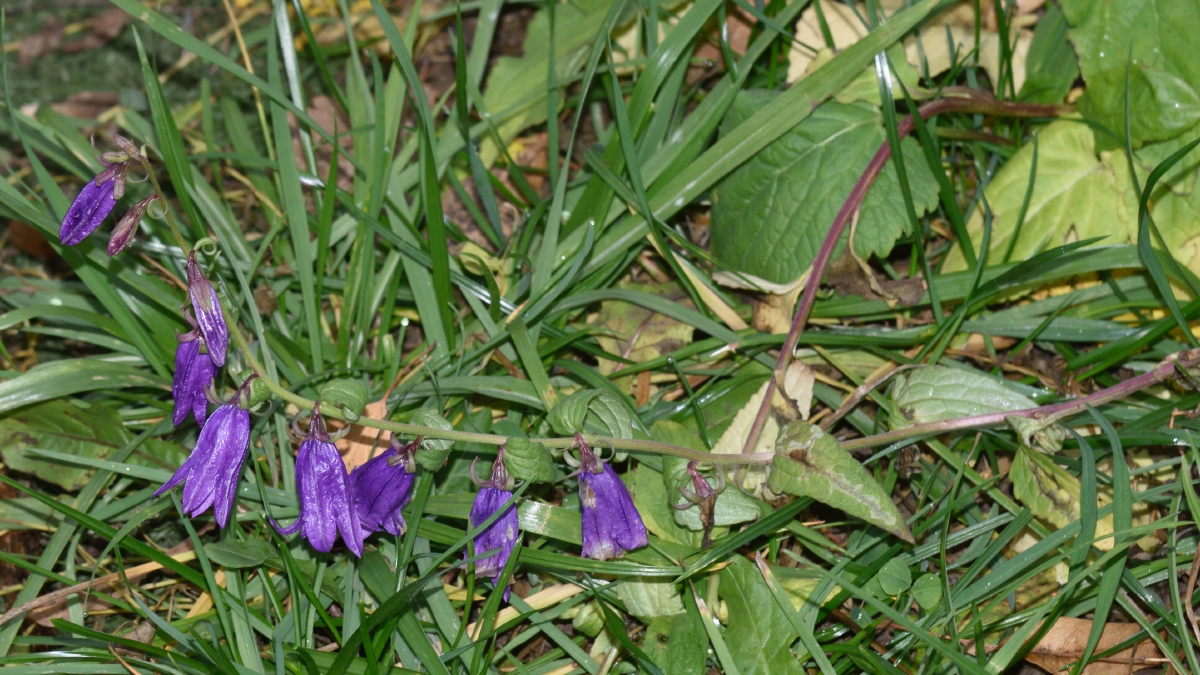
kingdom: Plantae
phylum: Tracheophyta
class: Magnoliopsida
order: Asterales
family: Campanulaceae
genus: Campanula
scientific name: Campanula rapunculoides
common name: Creeping bellflower
